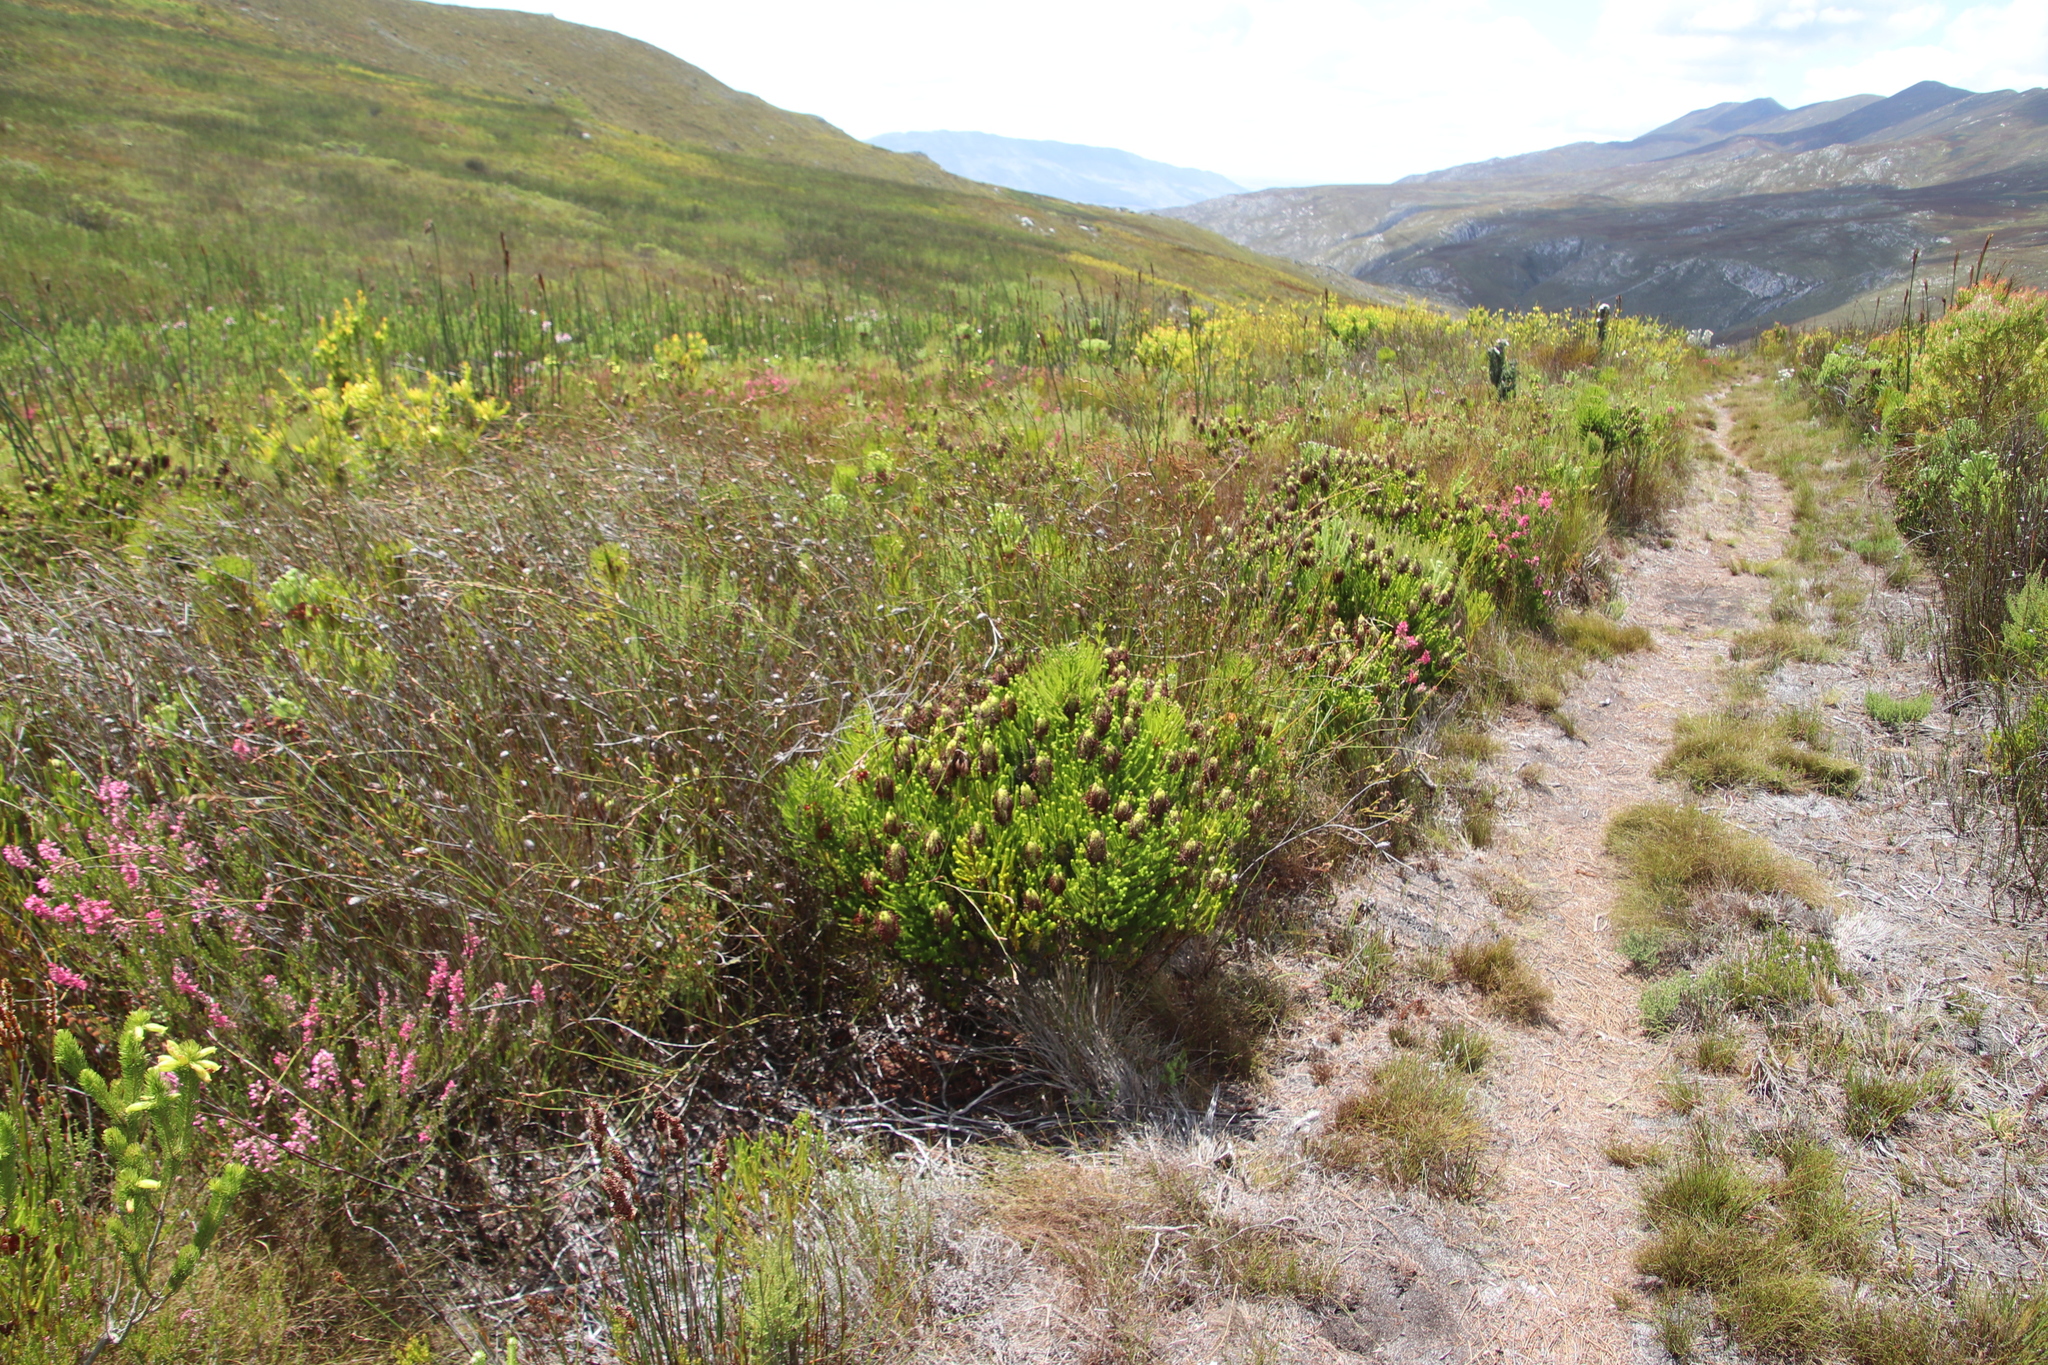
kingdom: Plantae
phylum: Tracheophyta
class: Magnoliopsida
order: Ericales
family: Ericaceae
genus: Erica
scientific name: Erica sessiliflora
